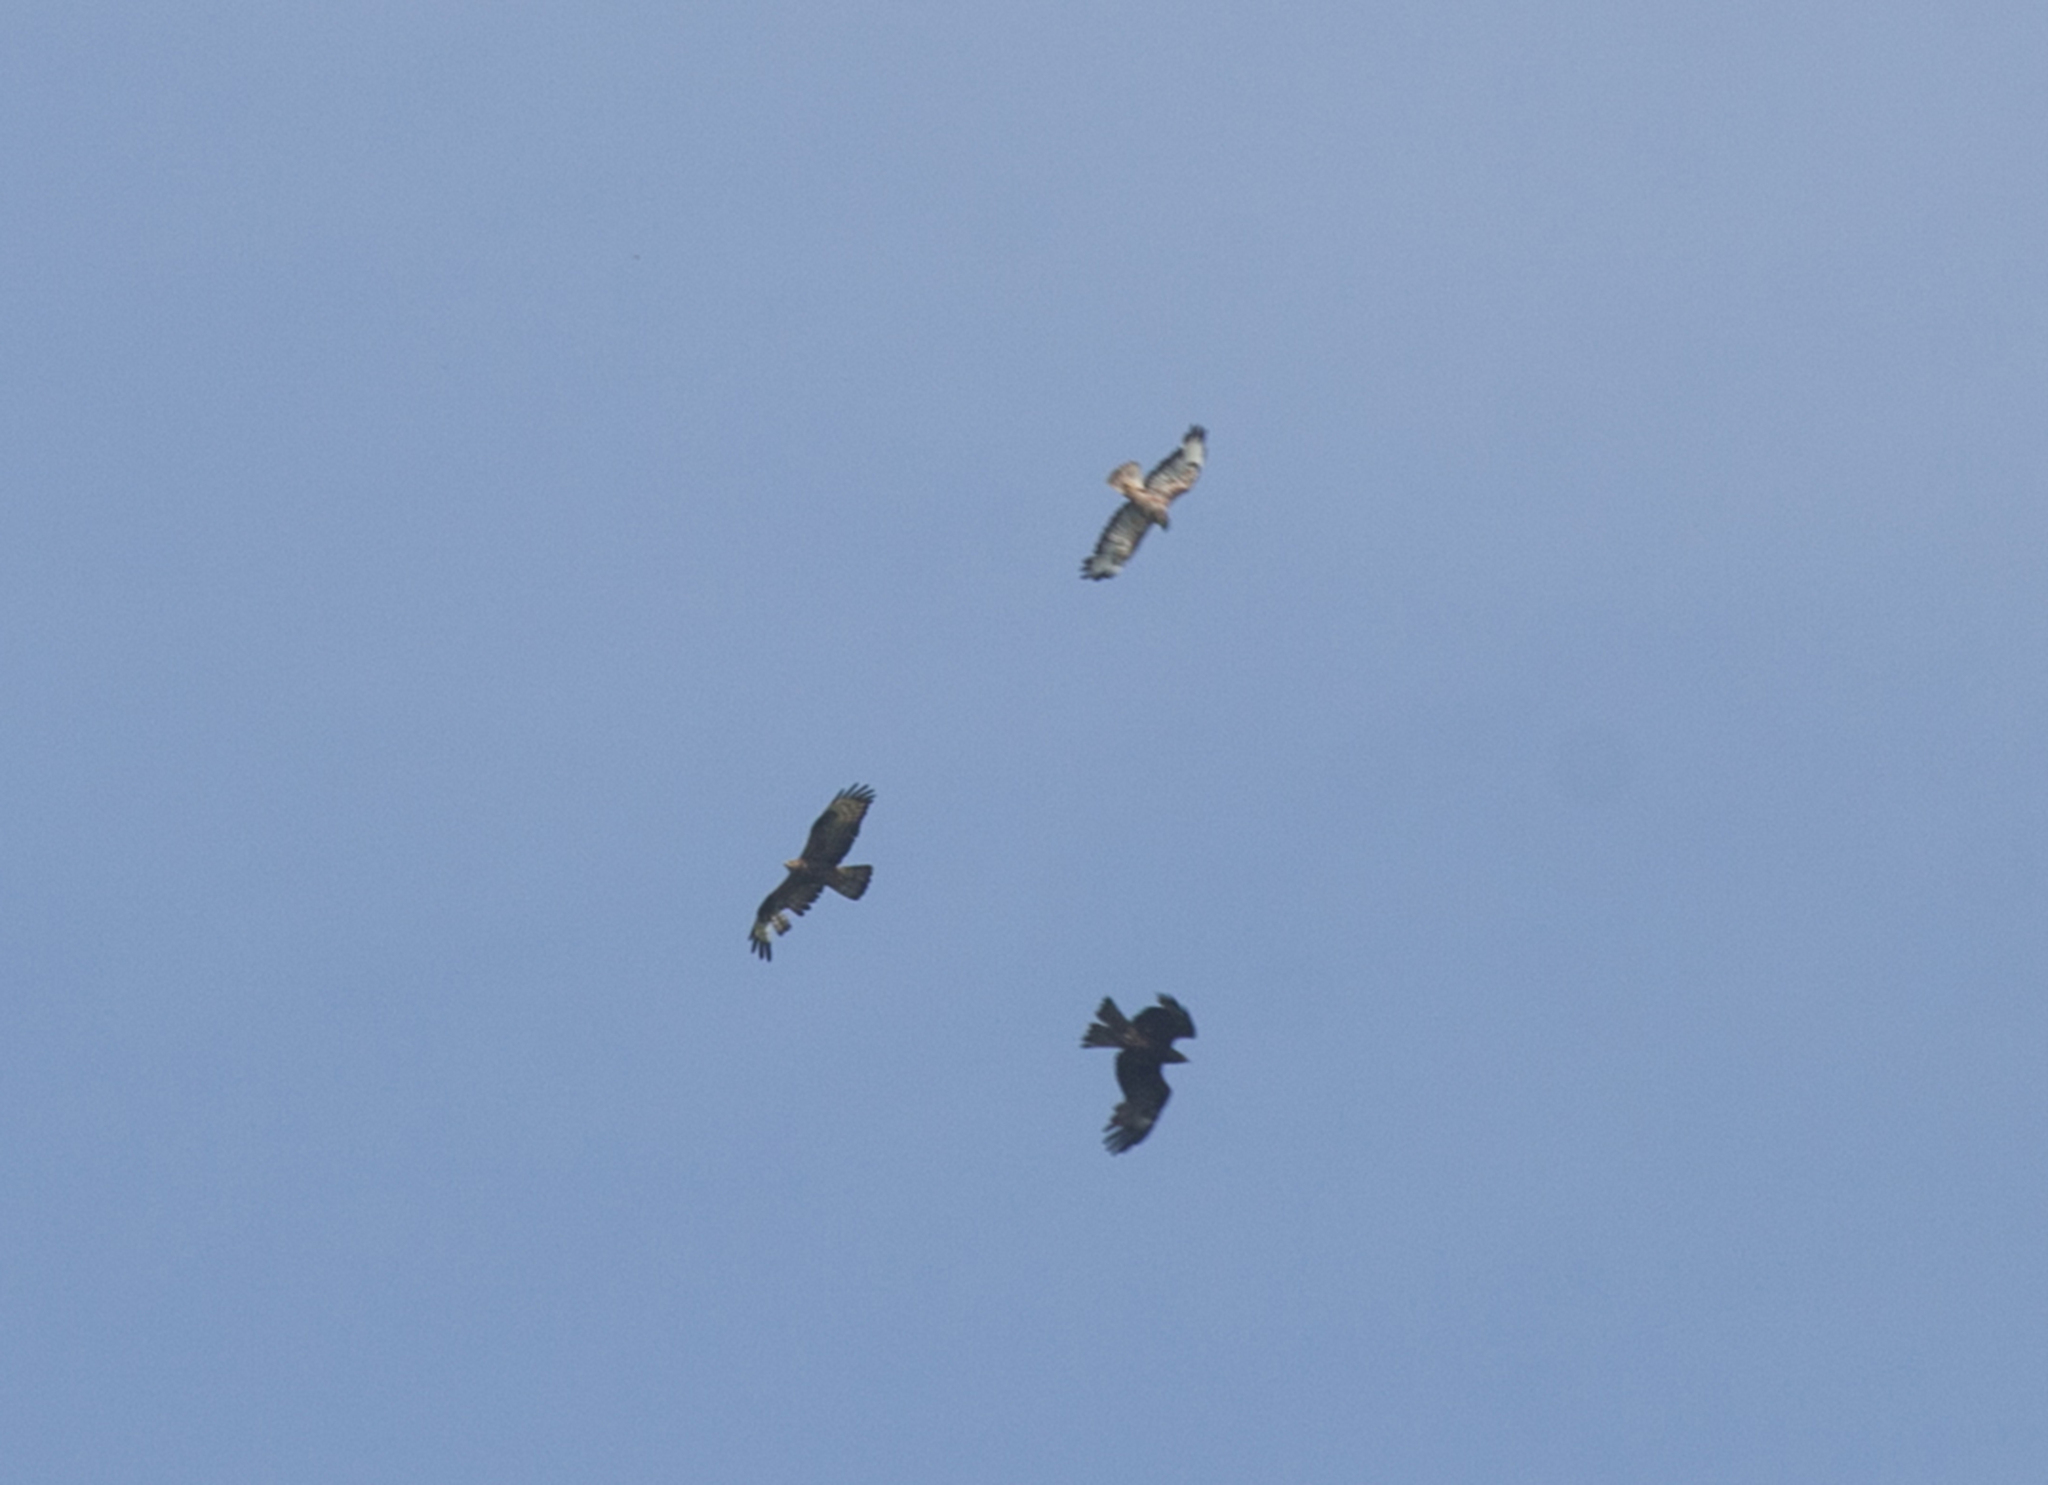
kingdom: Animalia
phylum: Chordata
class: Aves
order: Accipitriformes
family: Accipitridae
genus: Buteo
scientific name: Buteo buteo
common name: Common buzzard
